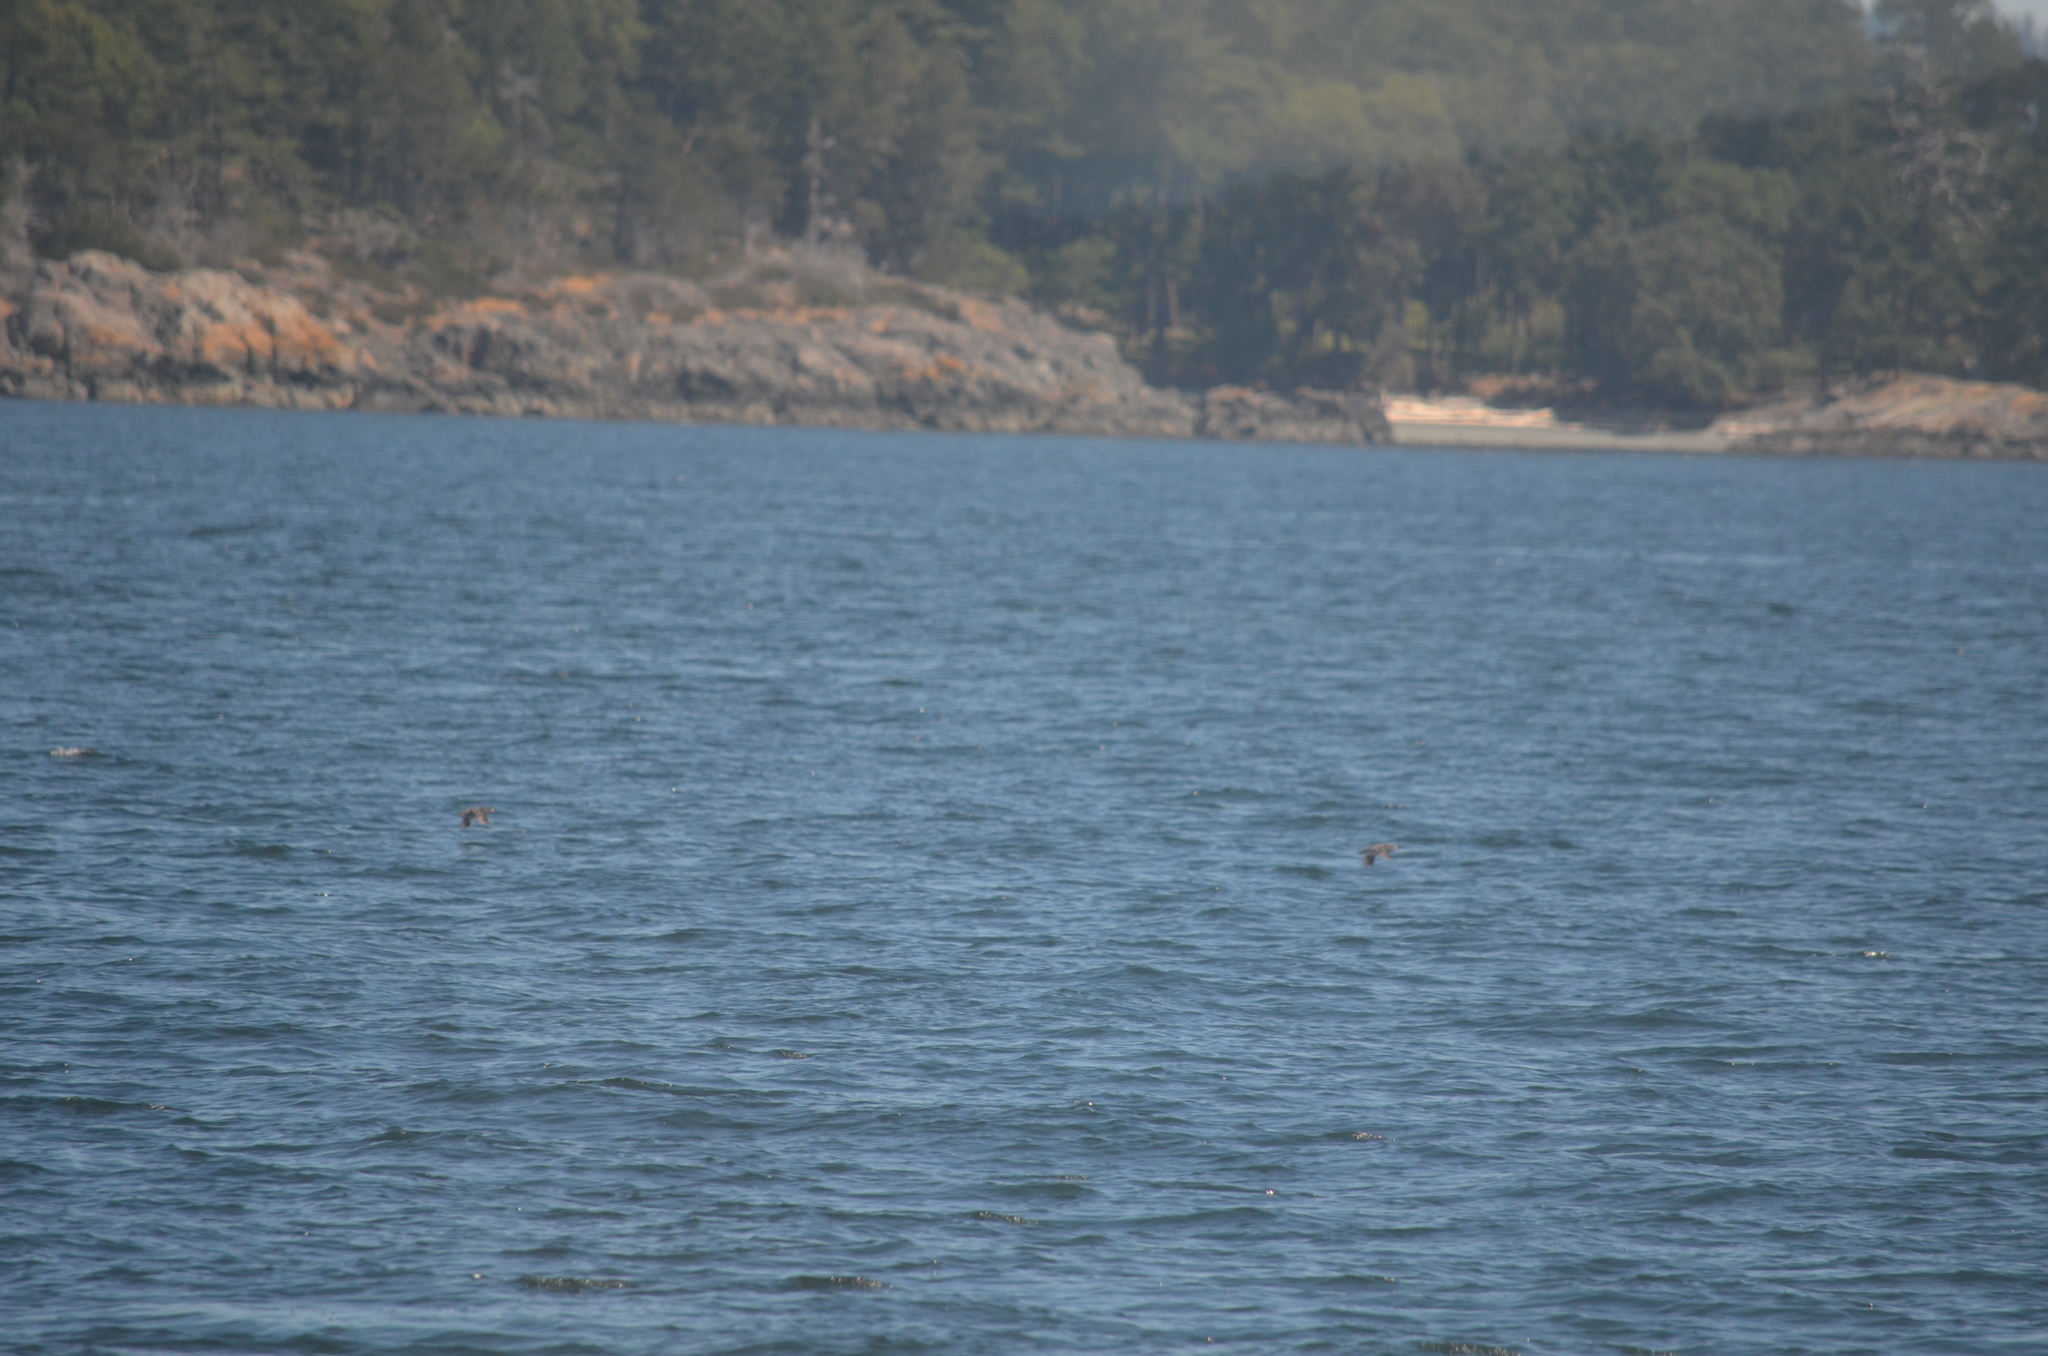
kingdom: Animalia
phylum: Chordata
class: Aves
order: Charadriiformes
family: Alcidae
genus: Cerorhinca
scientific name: Cerorhinca monocerata
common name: Rhinoceros auklet
